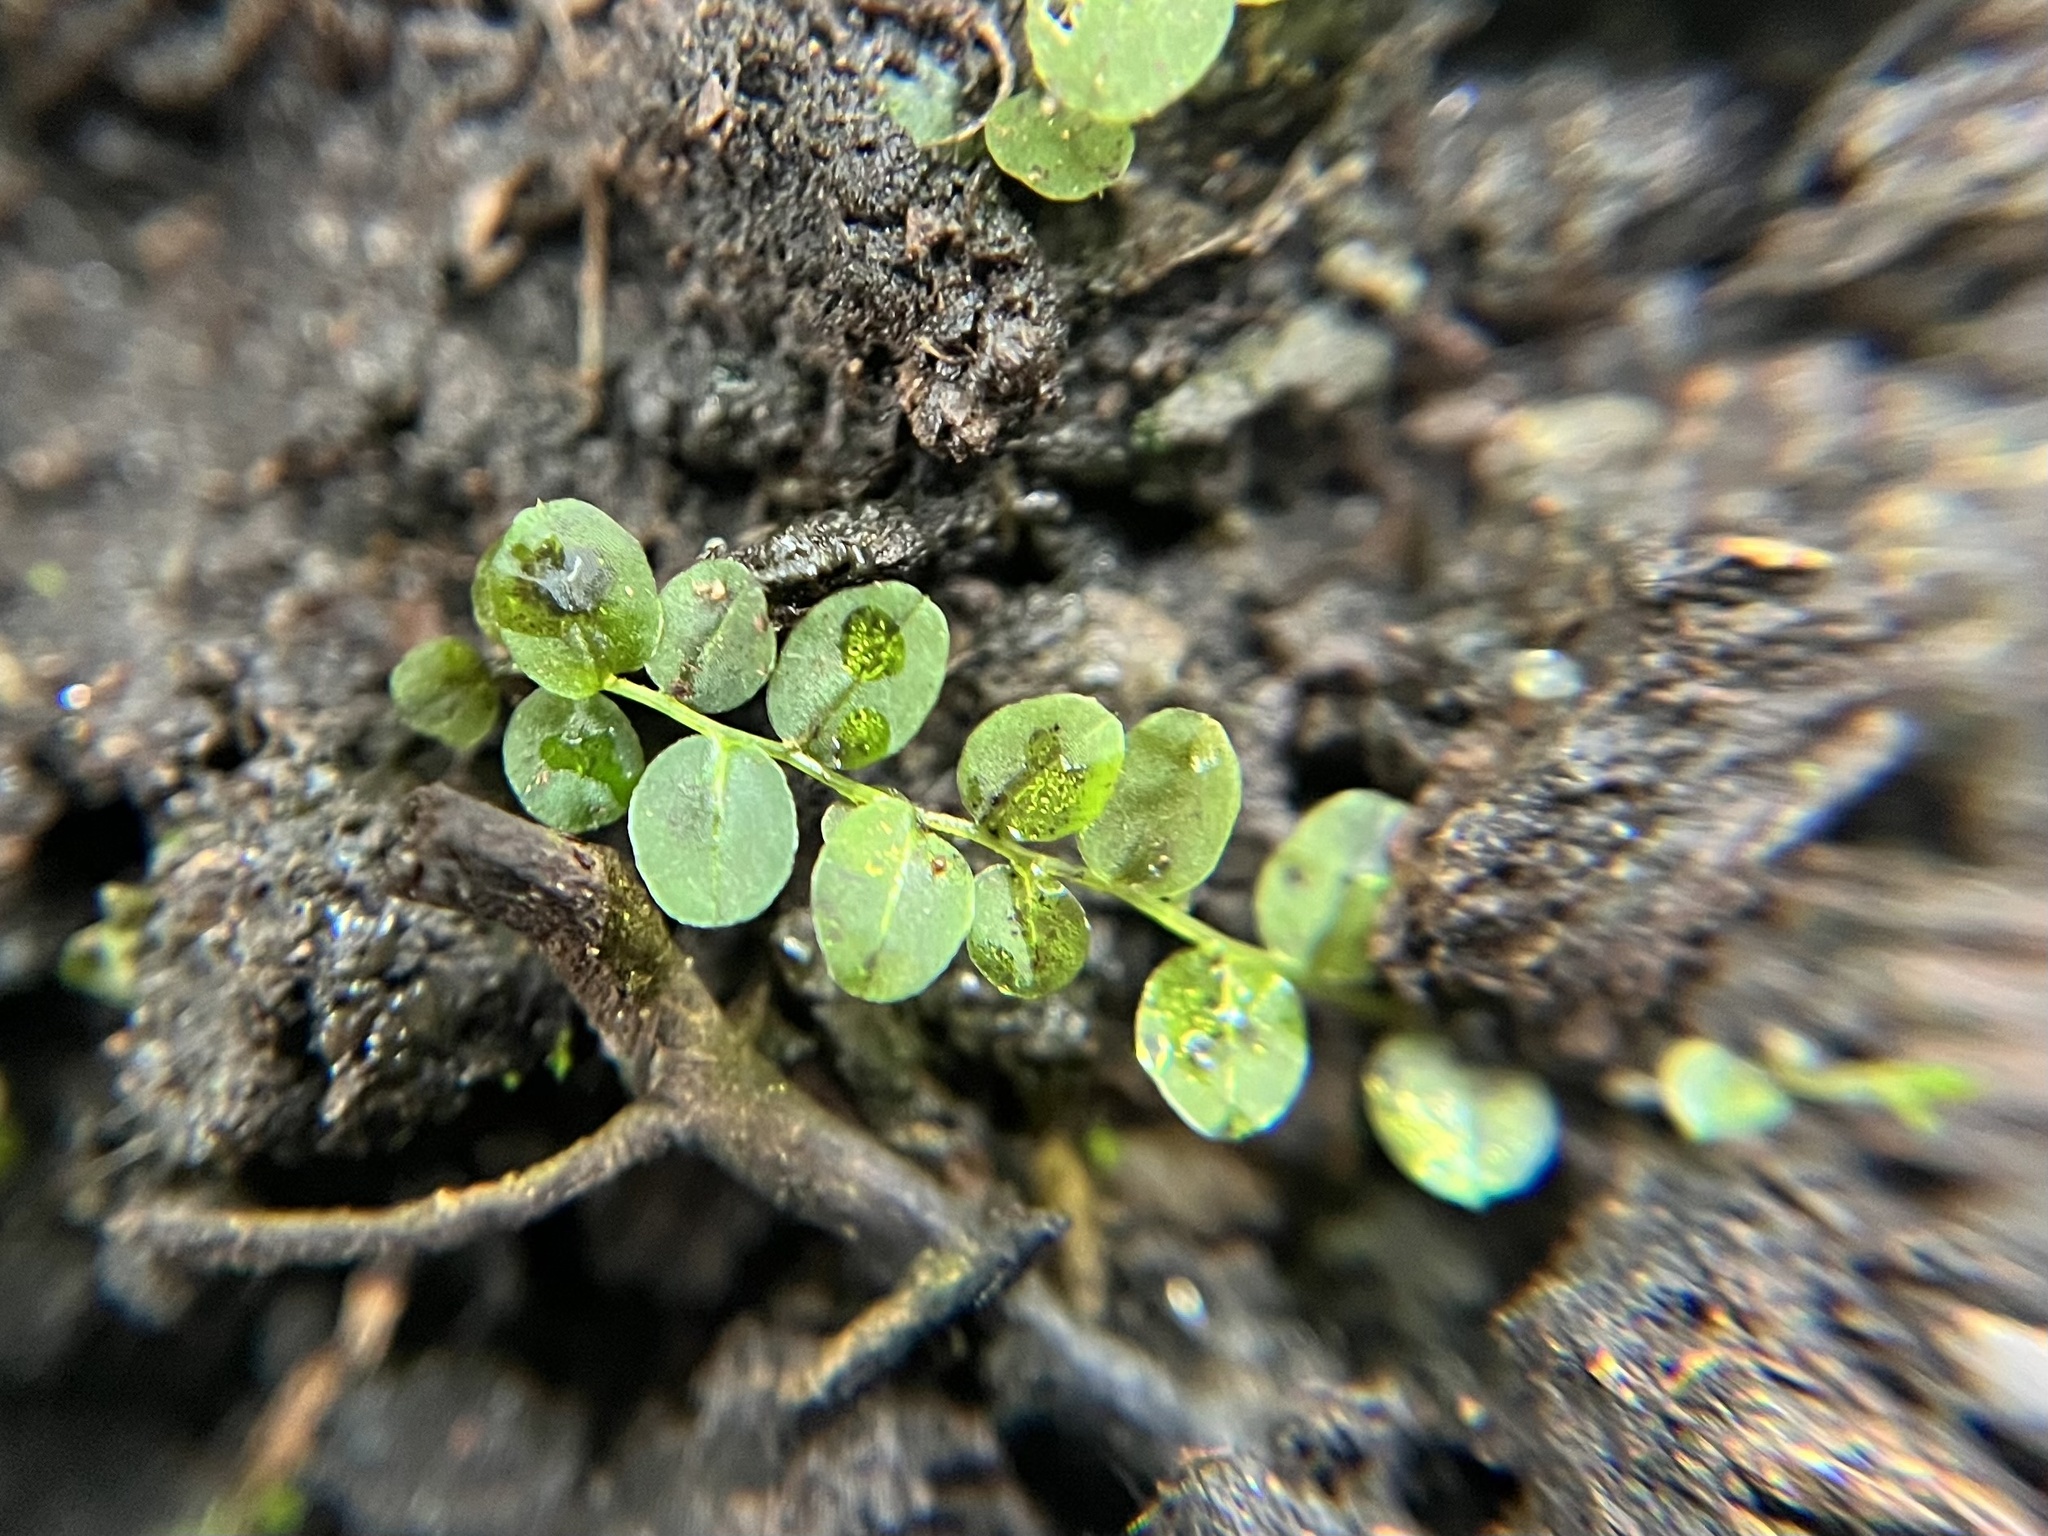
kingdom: Plantae
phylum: Bryophyta
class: Bryopsida
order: Bryales
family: Mniaceae
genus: Plagiomnium
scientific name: Plagiomnium rostratum
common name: Long-beaked leafy moss
